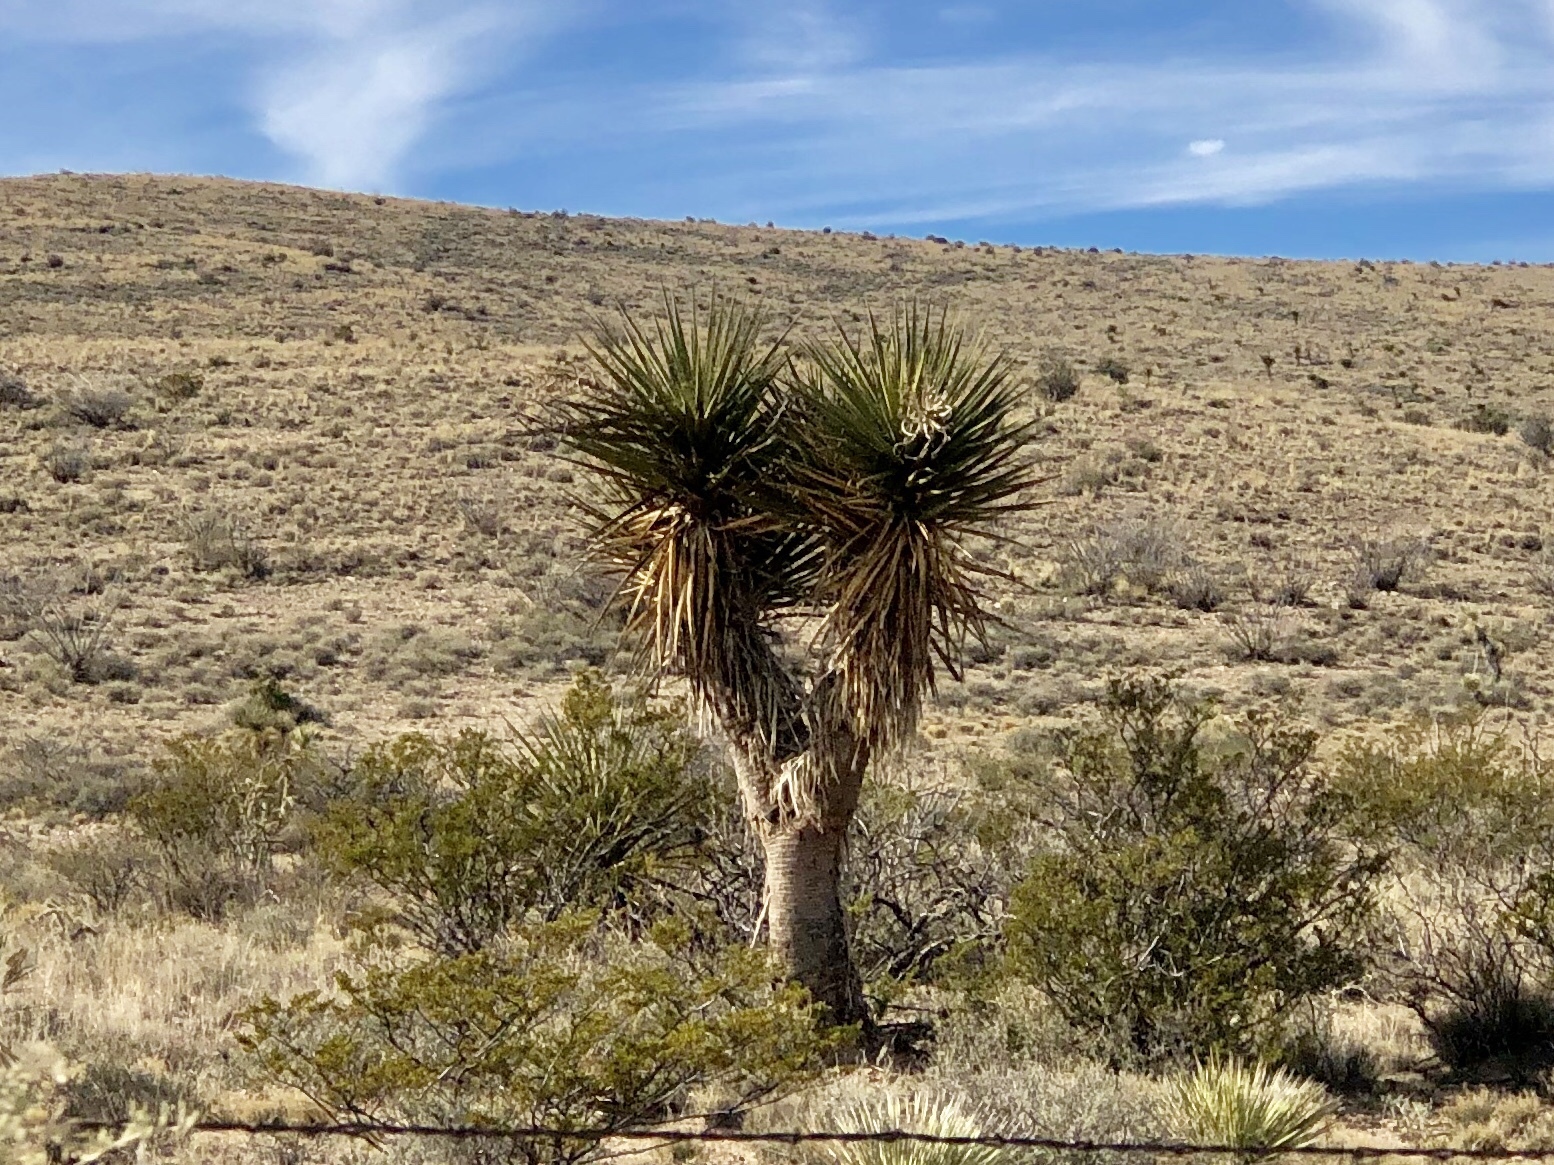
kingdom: Plantae
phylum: Tracheophyta
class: Liliopsida
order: Asparagales
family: Asparagaceae
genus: Yucca
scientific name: Yucca treculiana
